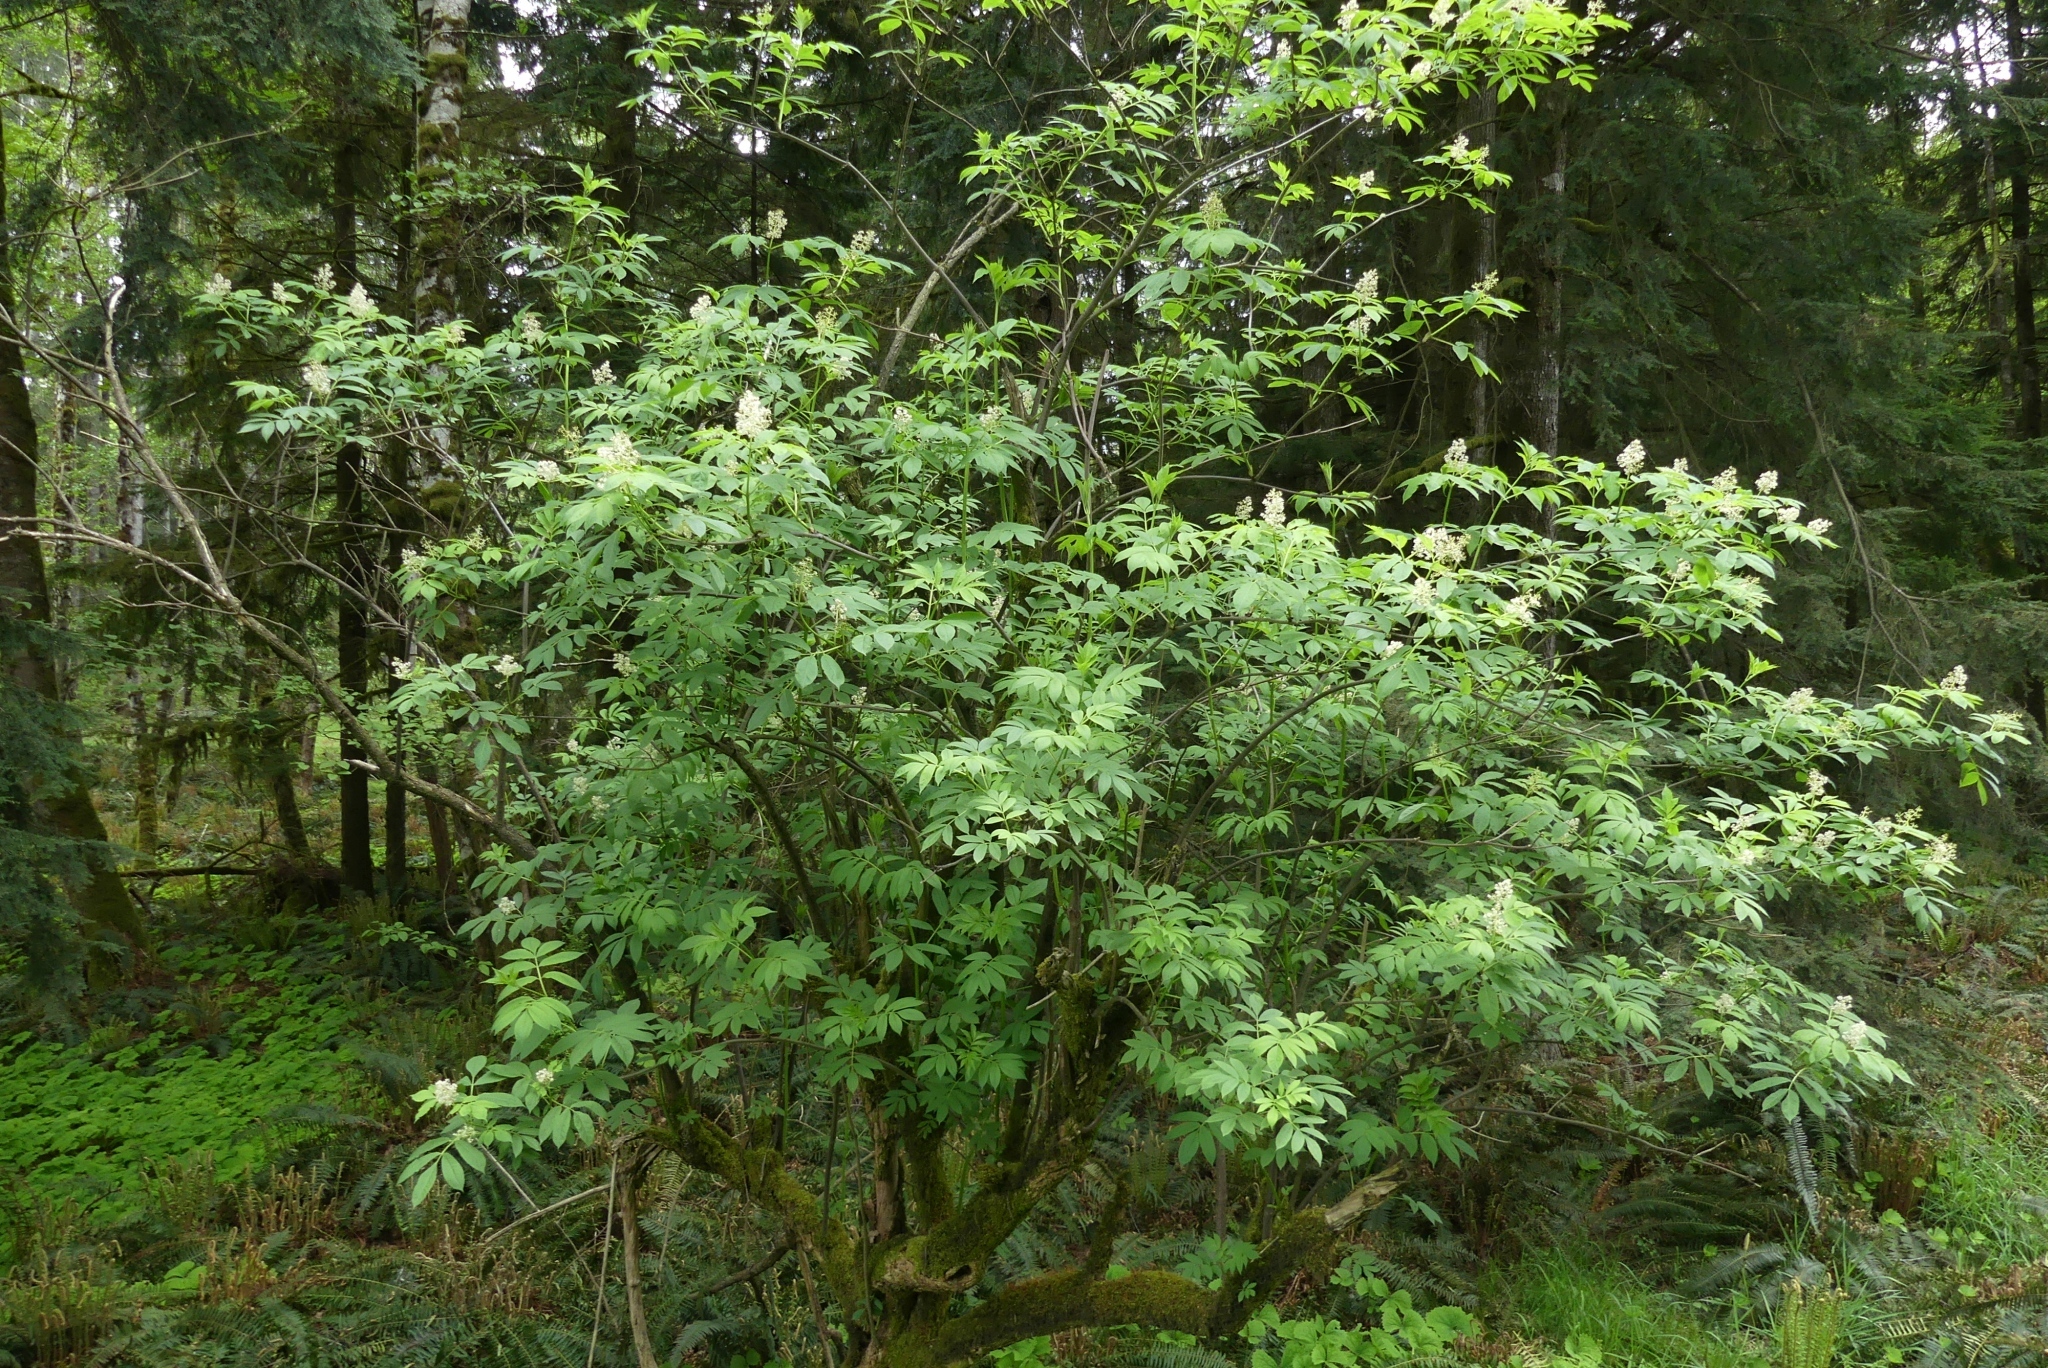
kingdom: Plantae
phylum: Tracheophyta
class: Magnoliopsida
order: Dipsacales
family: Viburnaceae
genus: Sambucus
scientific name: Sambucus racemosa
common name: Red-berried elder
